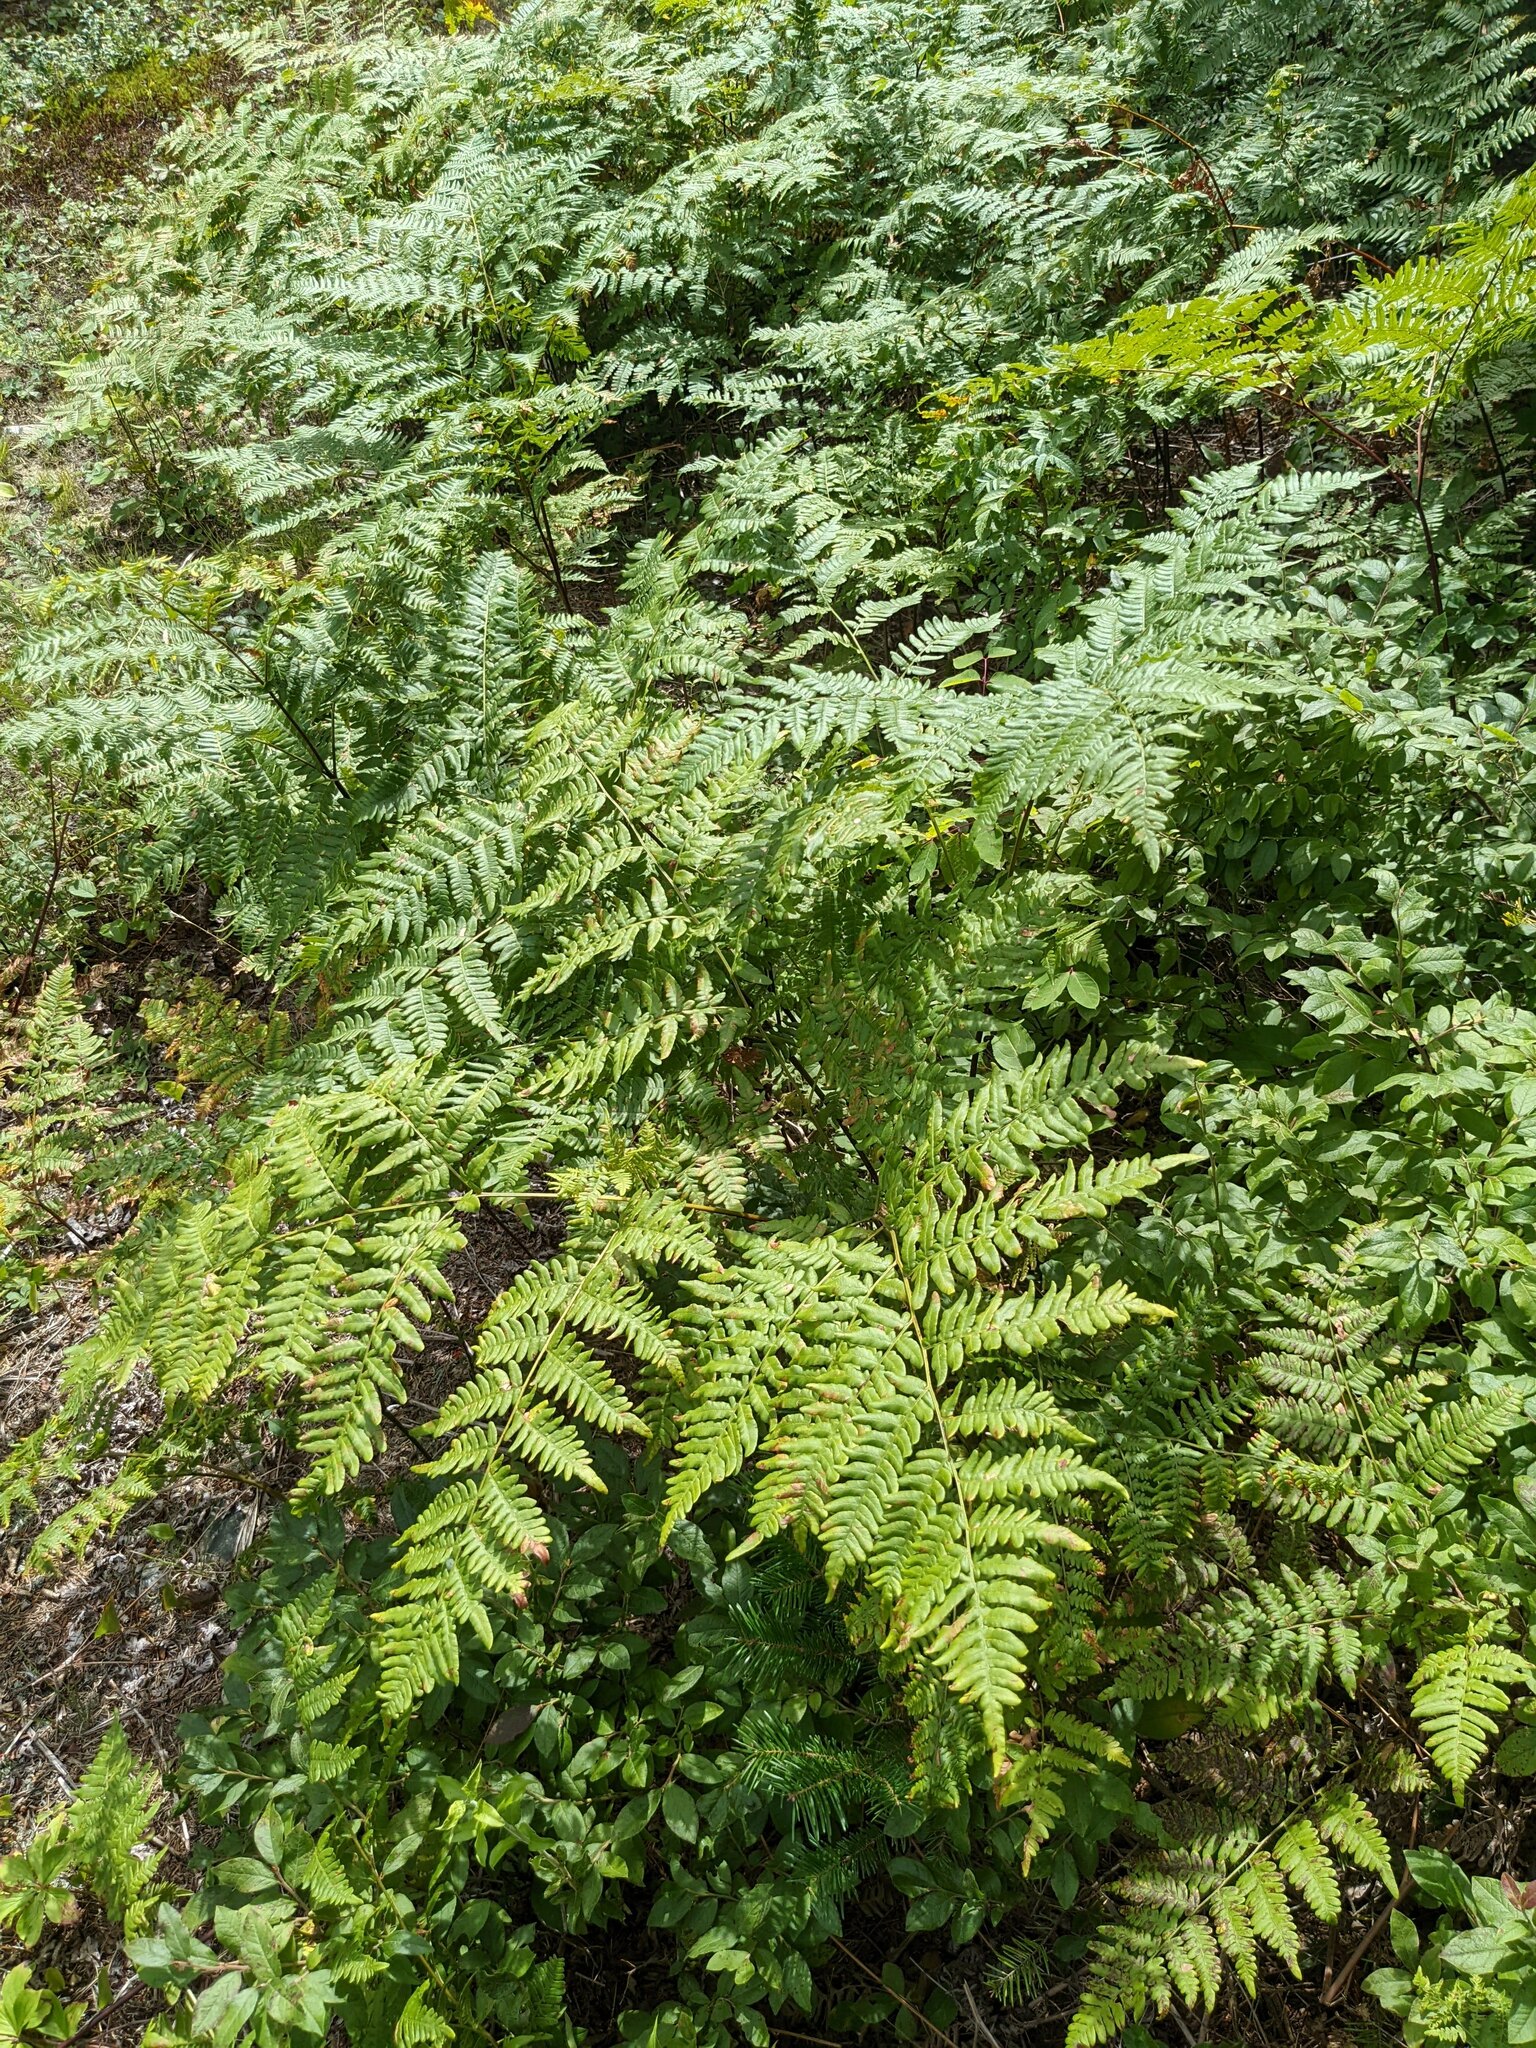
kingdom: Plantae
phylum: Tracheophyta
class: Polypodiopsida
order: Polypodiales
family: Dennstaedtiaceae
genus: Pteridium
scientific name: Pteridium aquilinum
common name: Bracken
